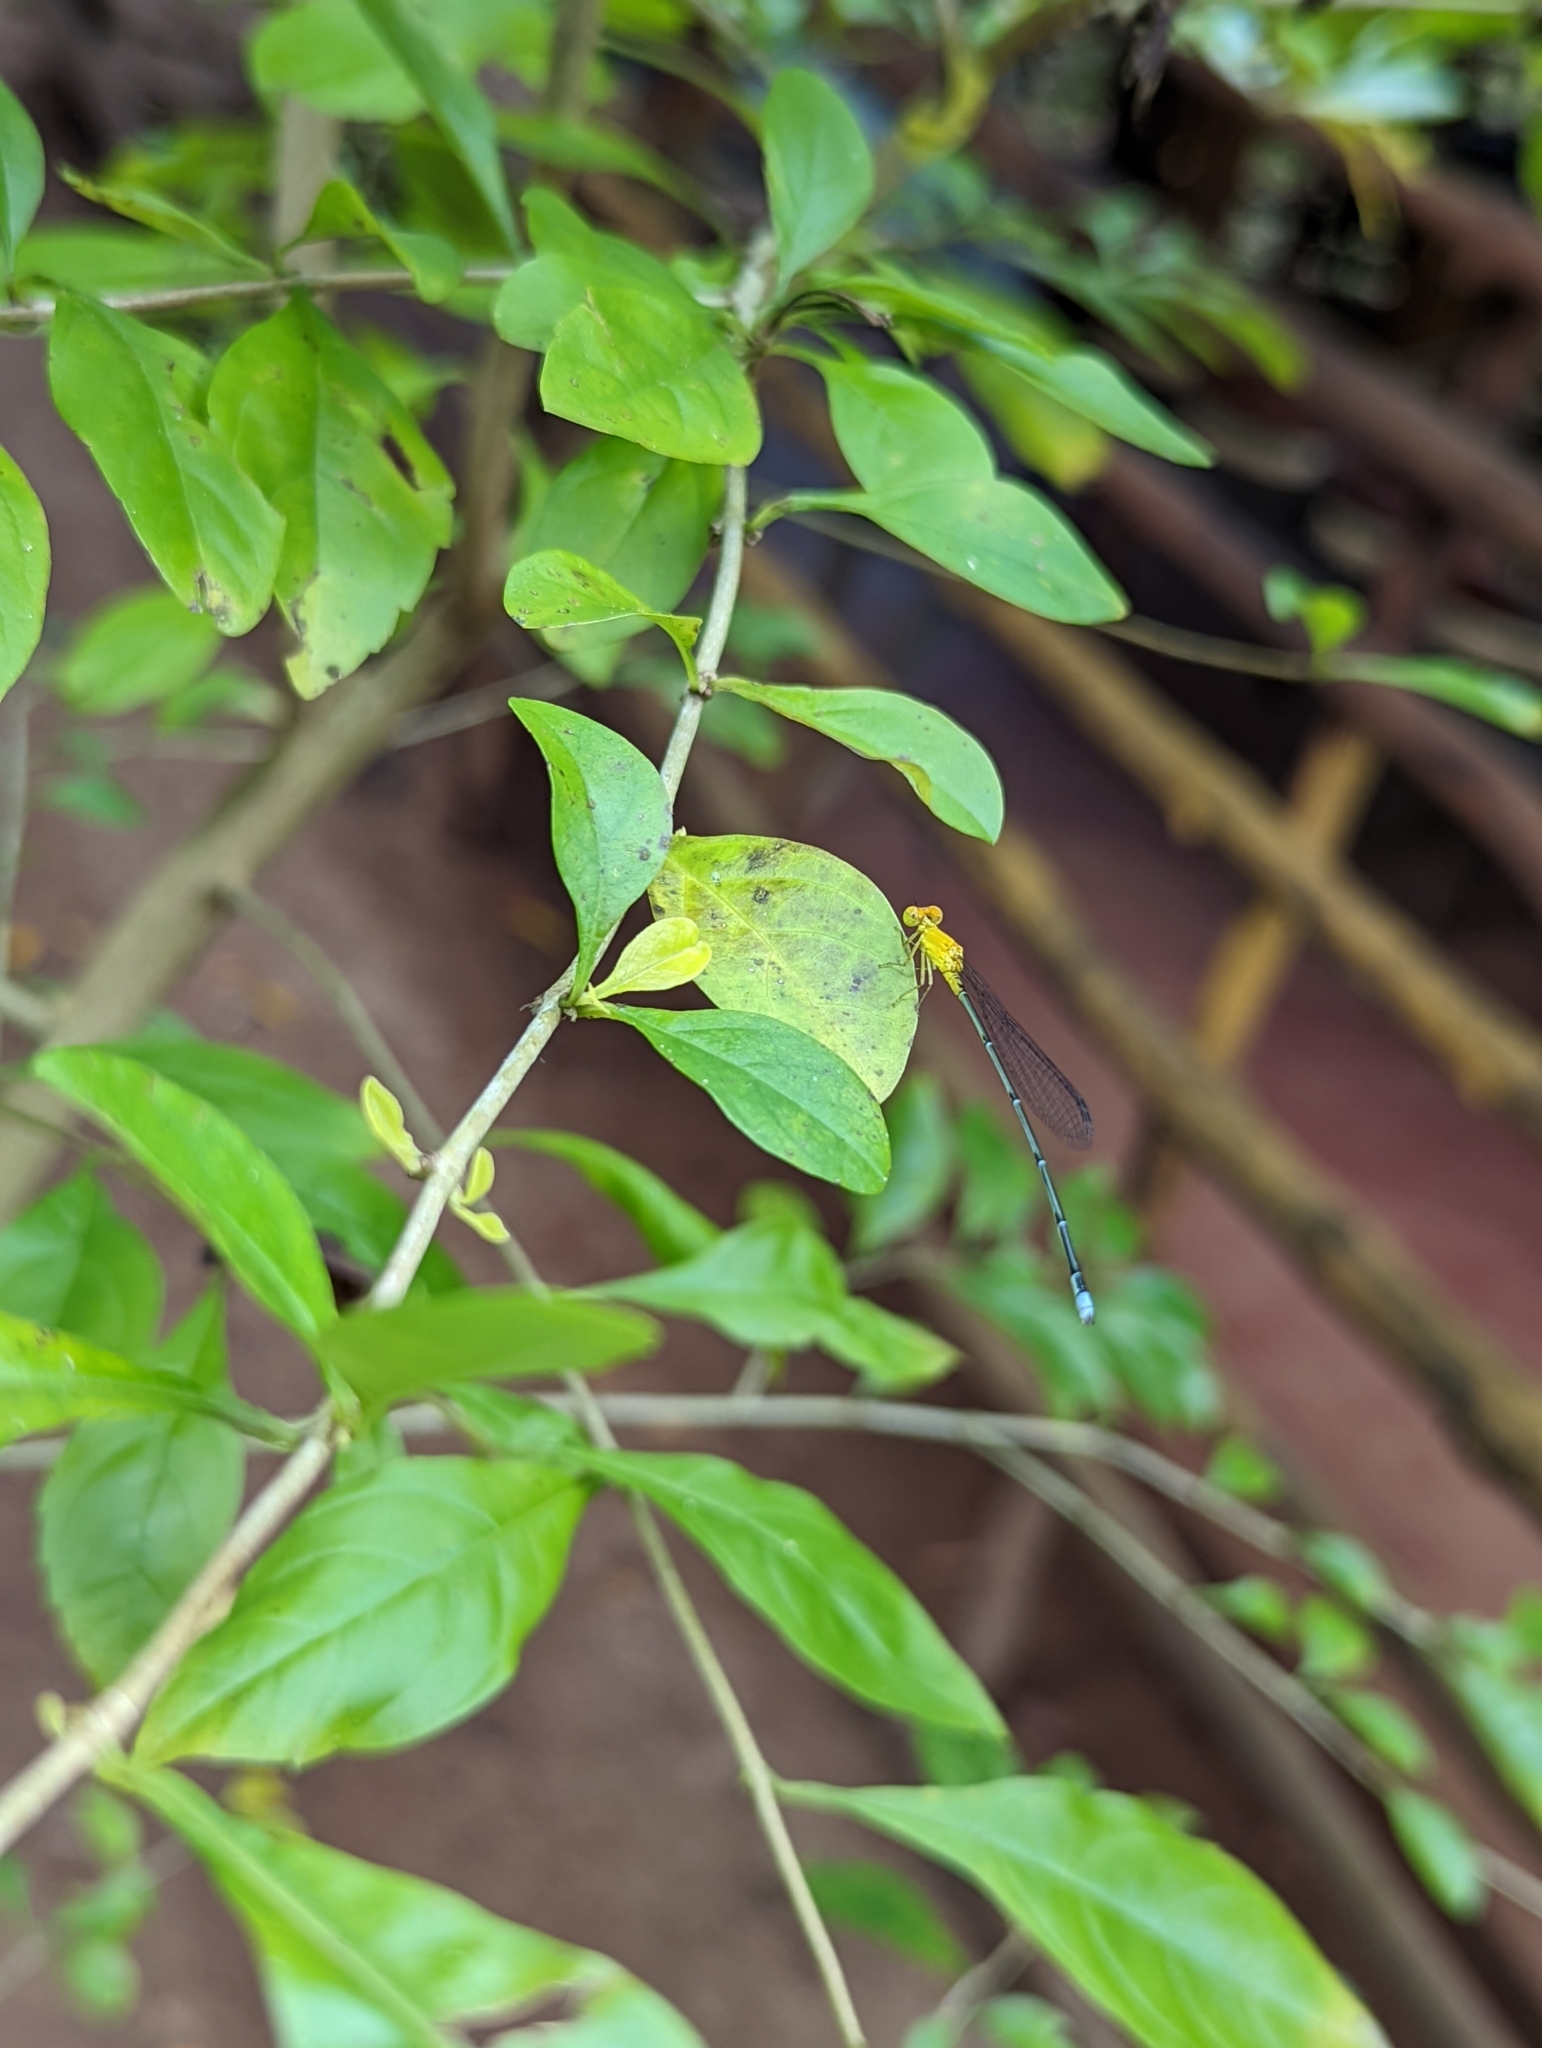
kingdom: Animalia
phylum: Arthropoda
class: Insecta
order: Odonata
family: Coenagrionidae
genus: Pseudagrion
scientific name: Pseudagrion rubriceps
